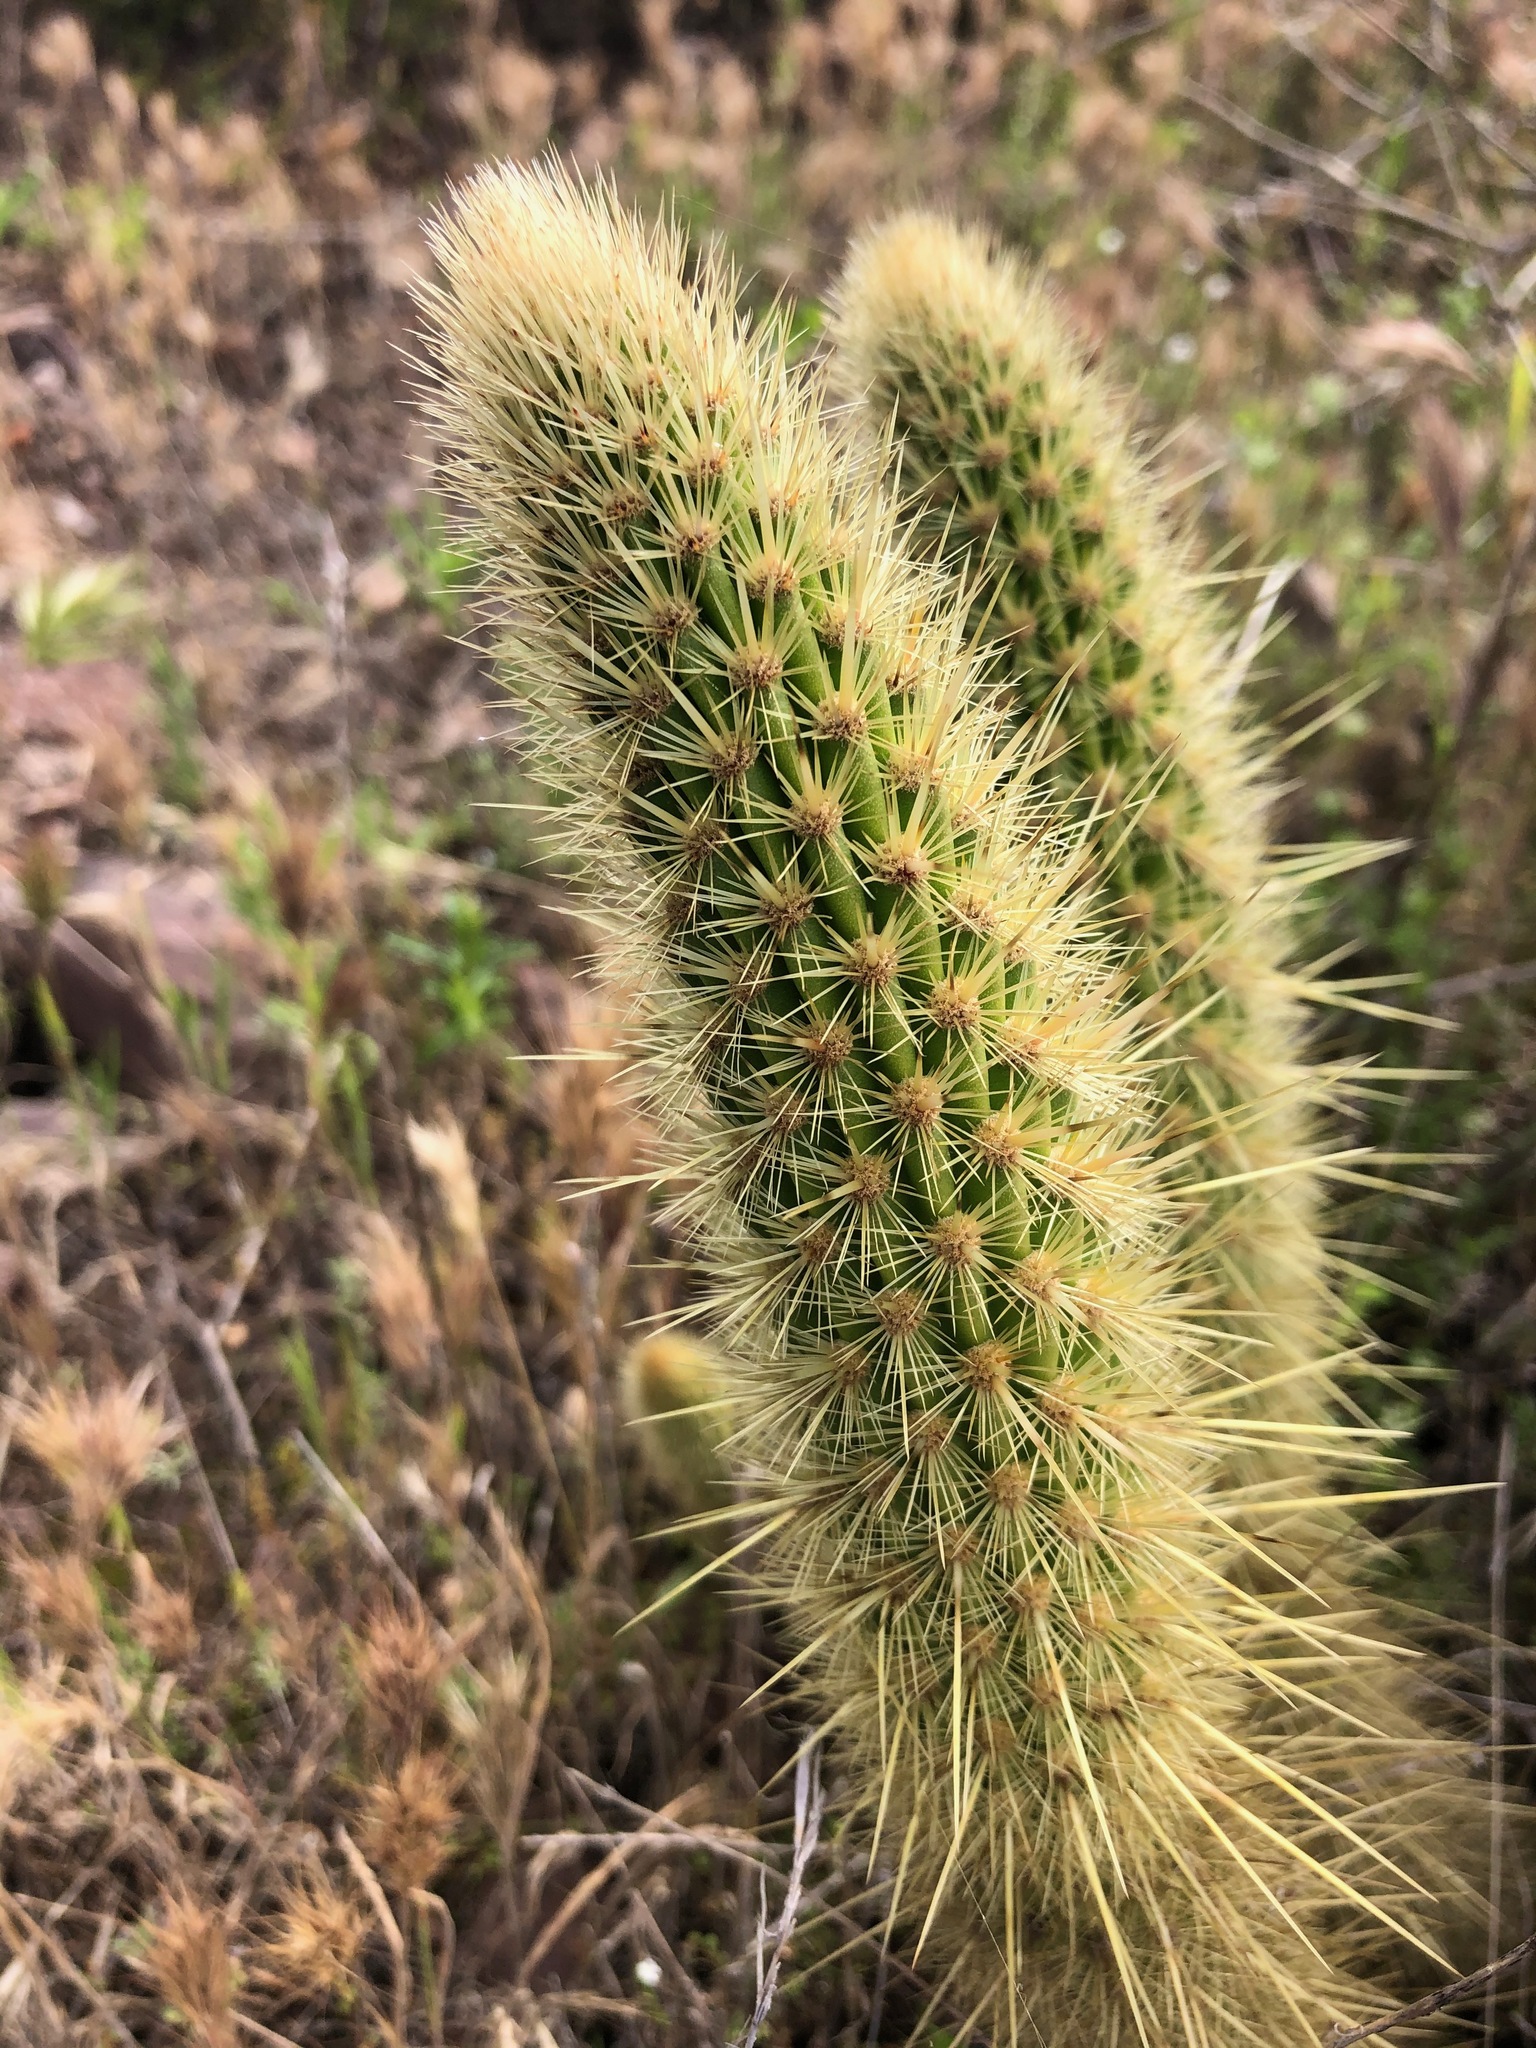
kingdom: Plantae
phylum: Tracheophyta
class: Magnoliopsida
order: Caryophyllales
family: Cactaceae
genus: Bergerocactus
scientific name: Bergerocactus emoryi
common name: Golden snakecactus
